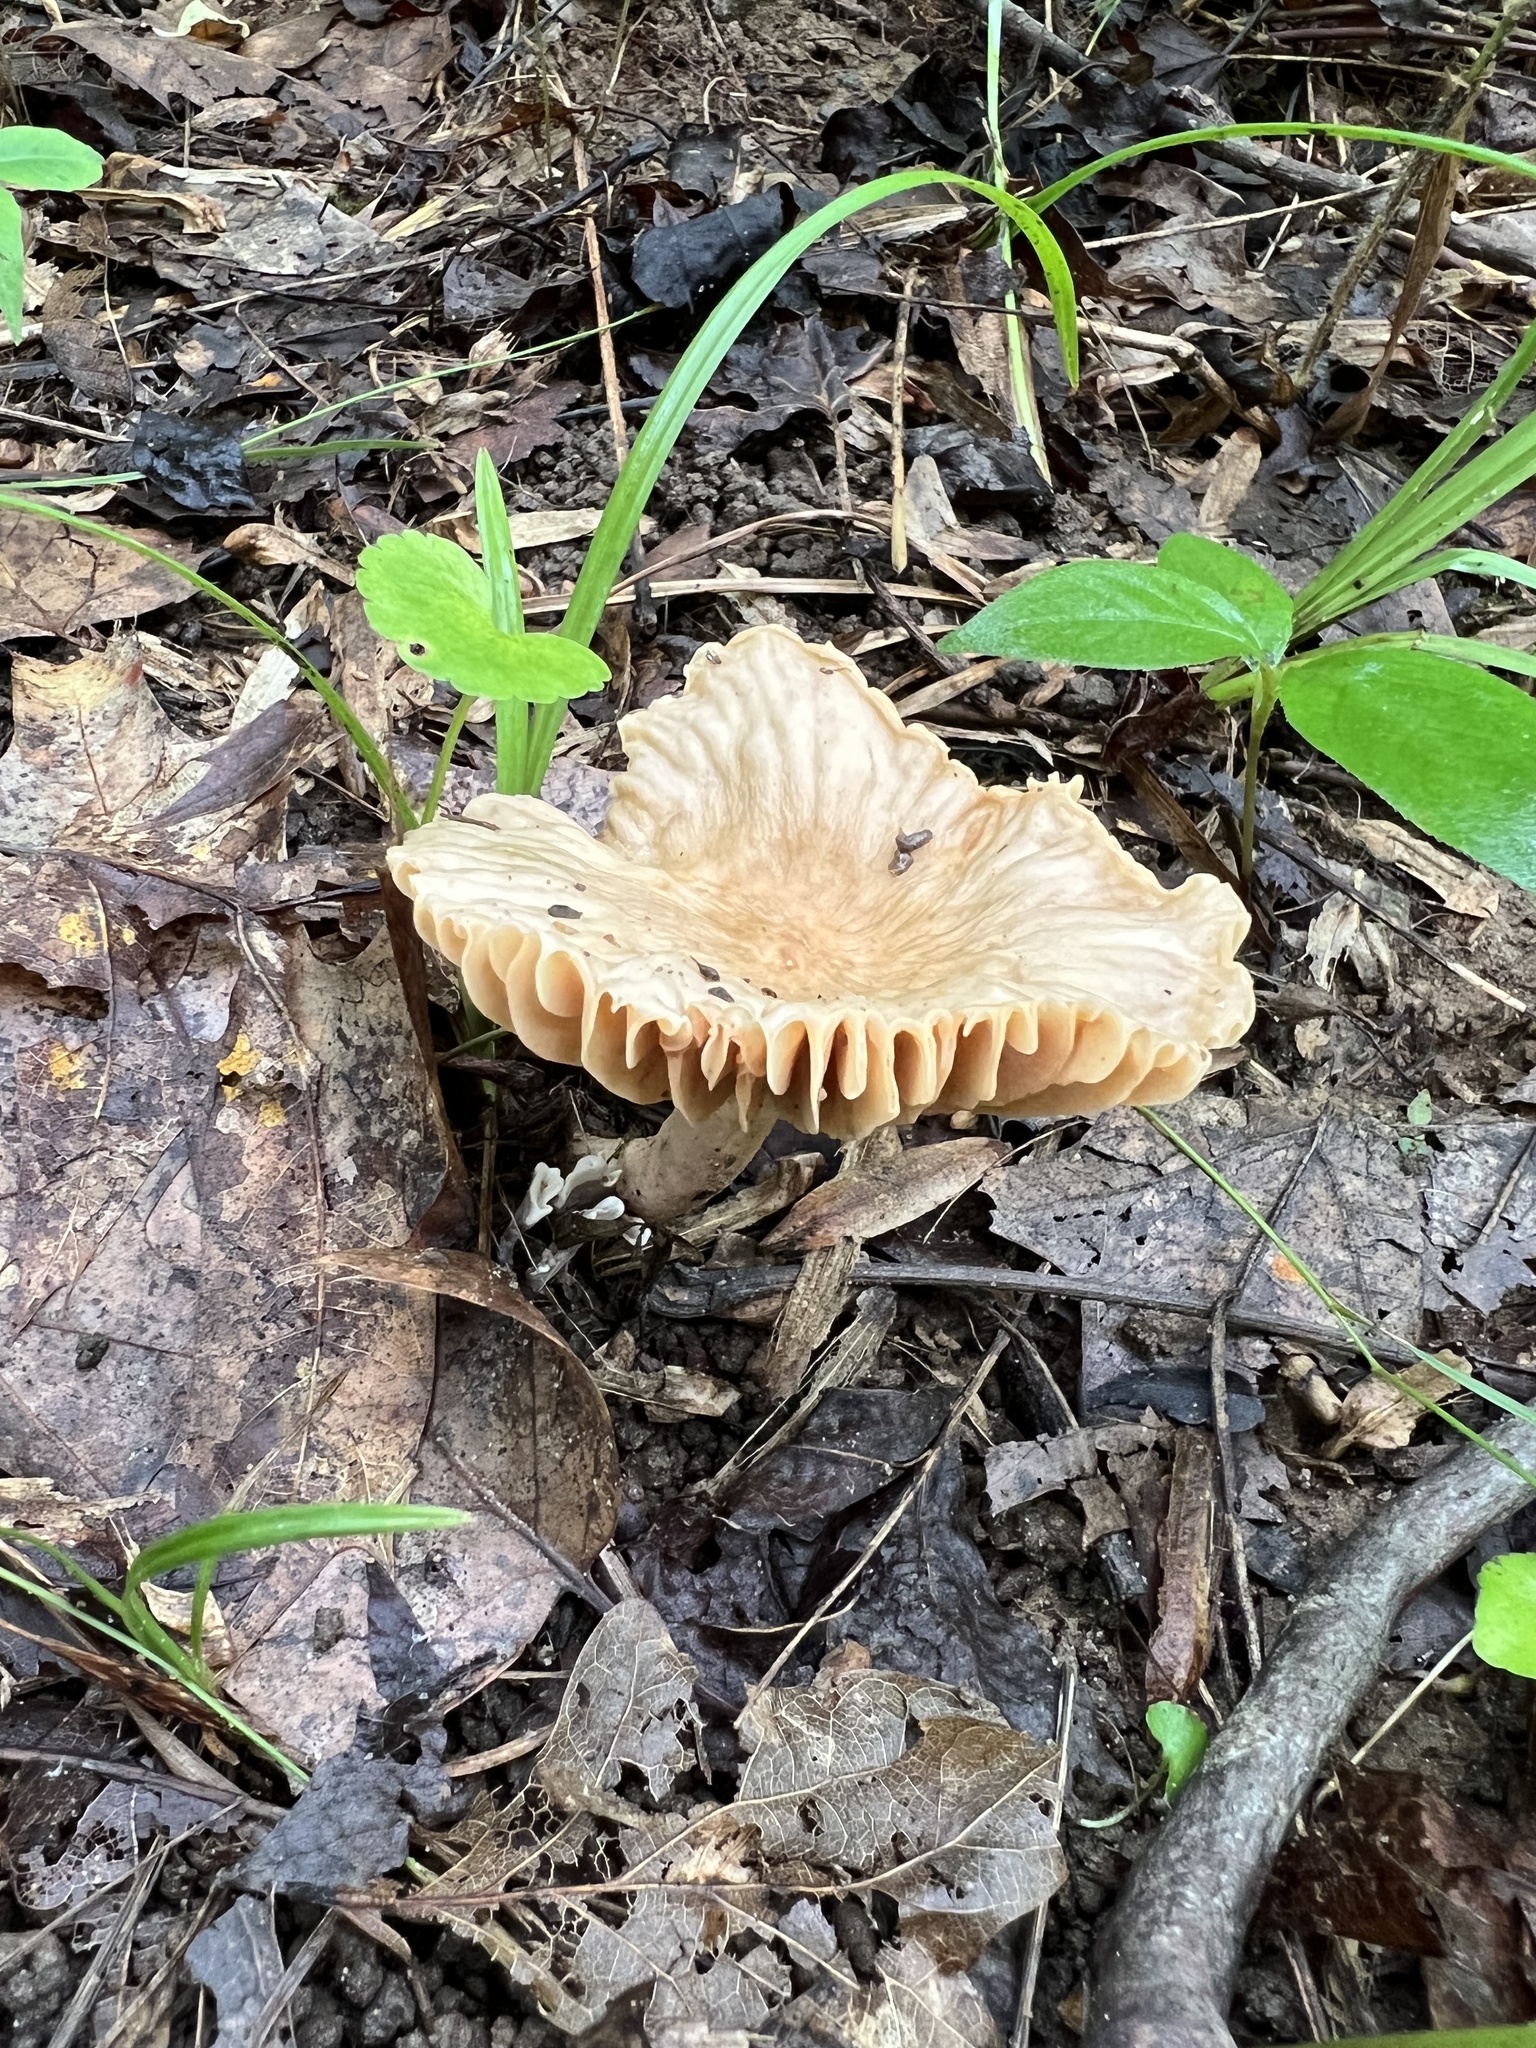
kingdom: Fungi
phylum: Basidiomycota
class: Agaricomycetes
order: Russulales
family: Russulaceae
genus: Lactarius
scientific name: Lactarius subplinthogalus
